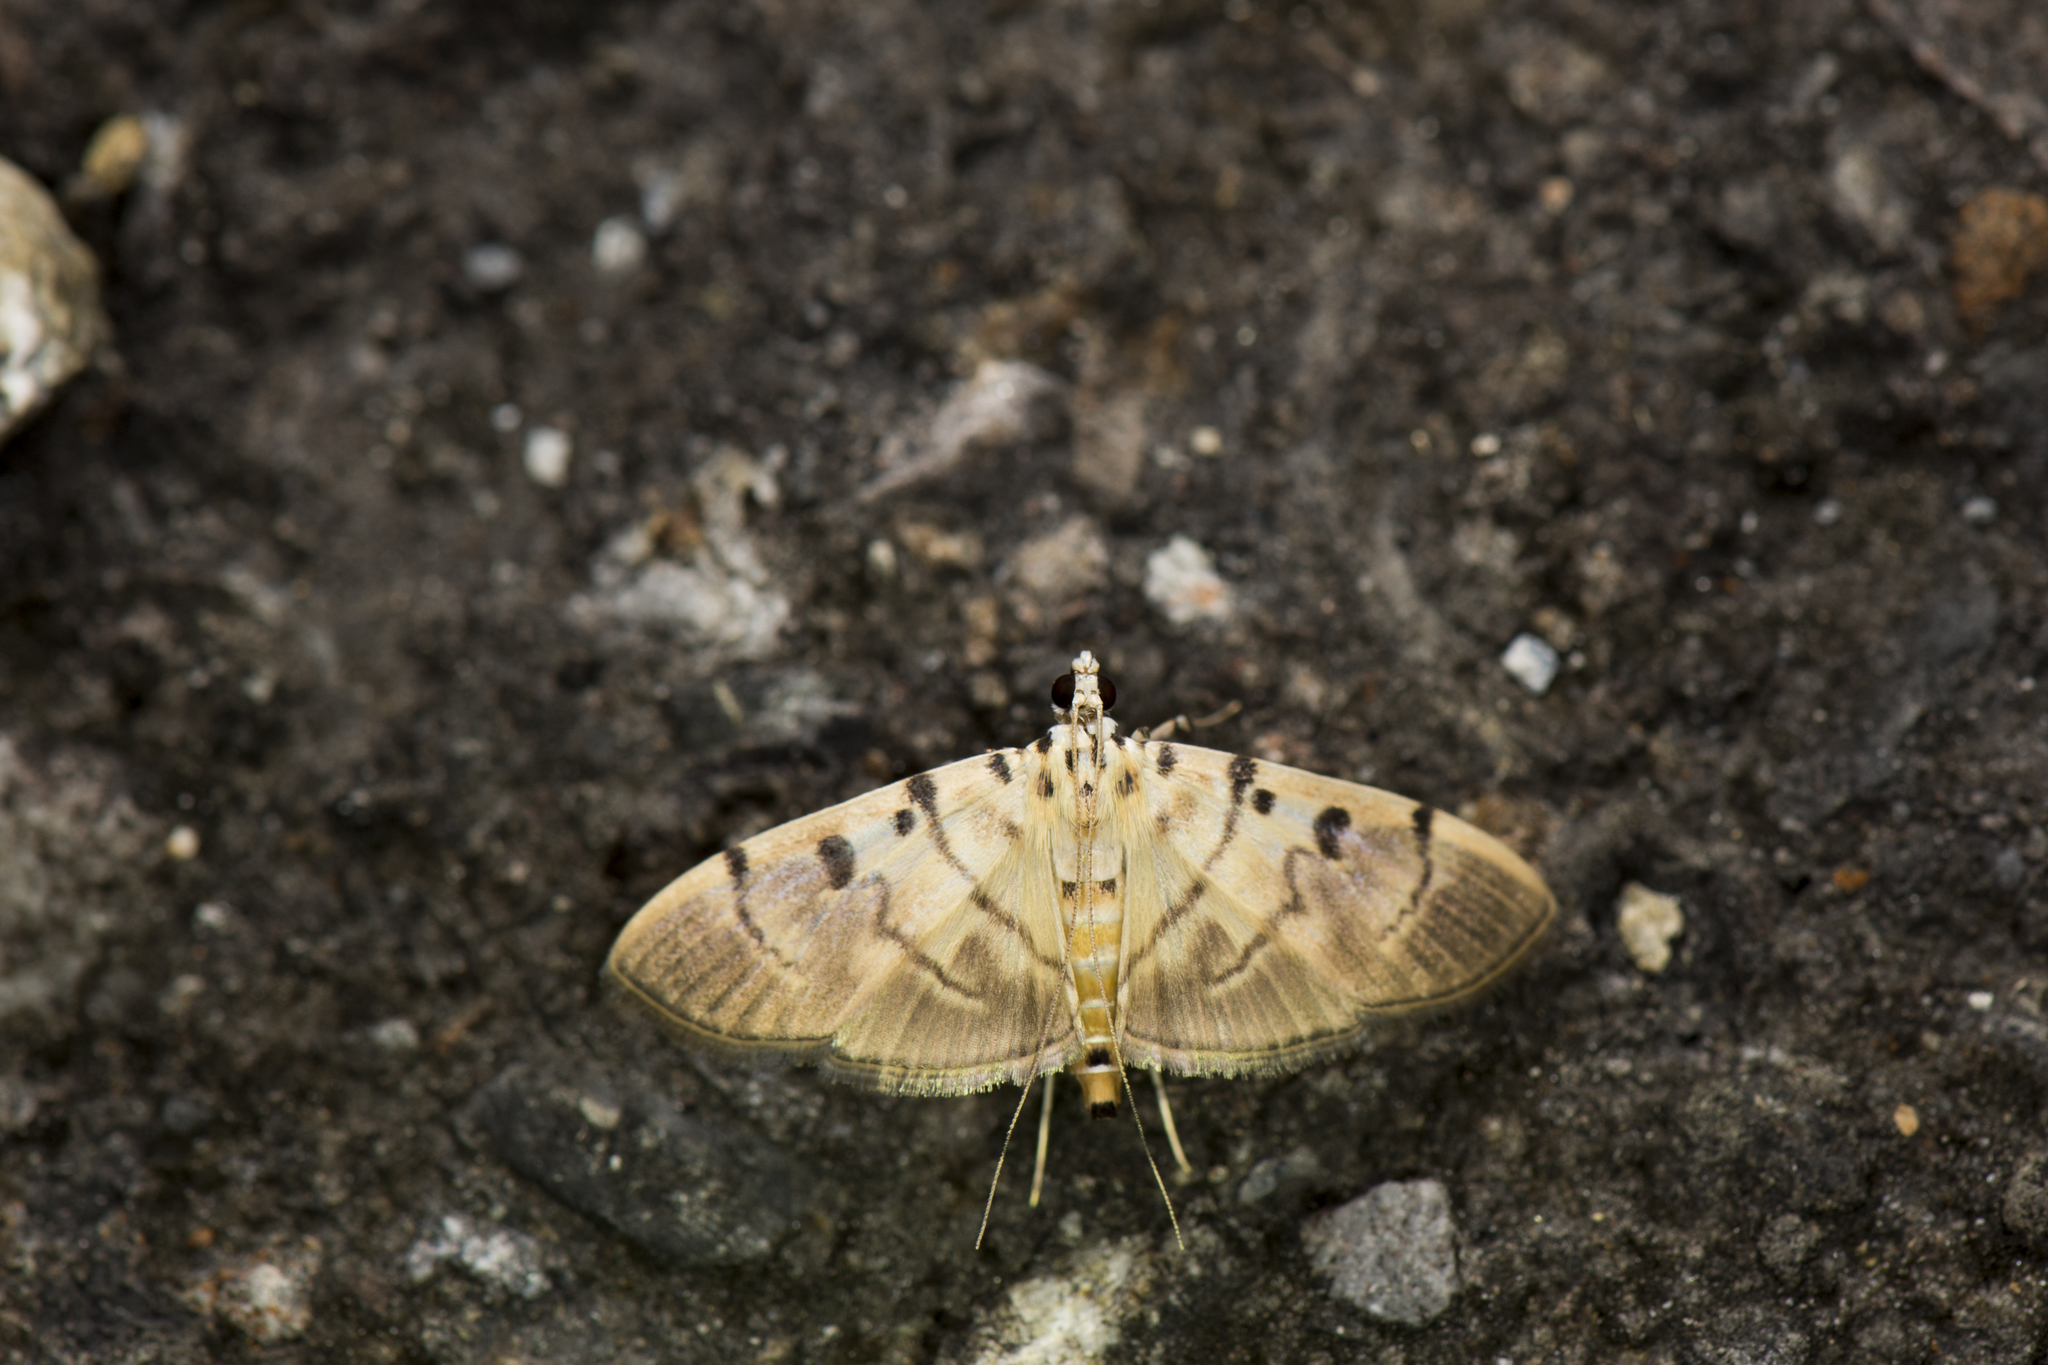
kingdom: Animalia
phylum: Arthropoda
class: Insecta
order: Lepidoptera
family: Crambidae
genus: Dichocrocis
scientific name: Dichocrocis definita
